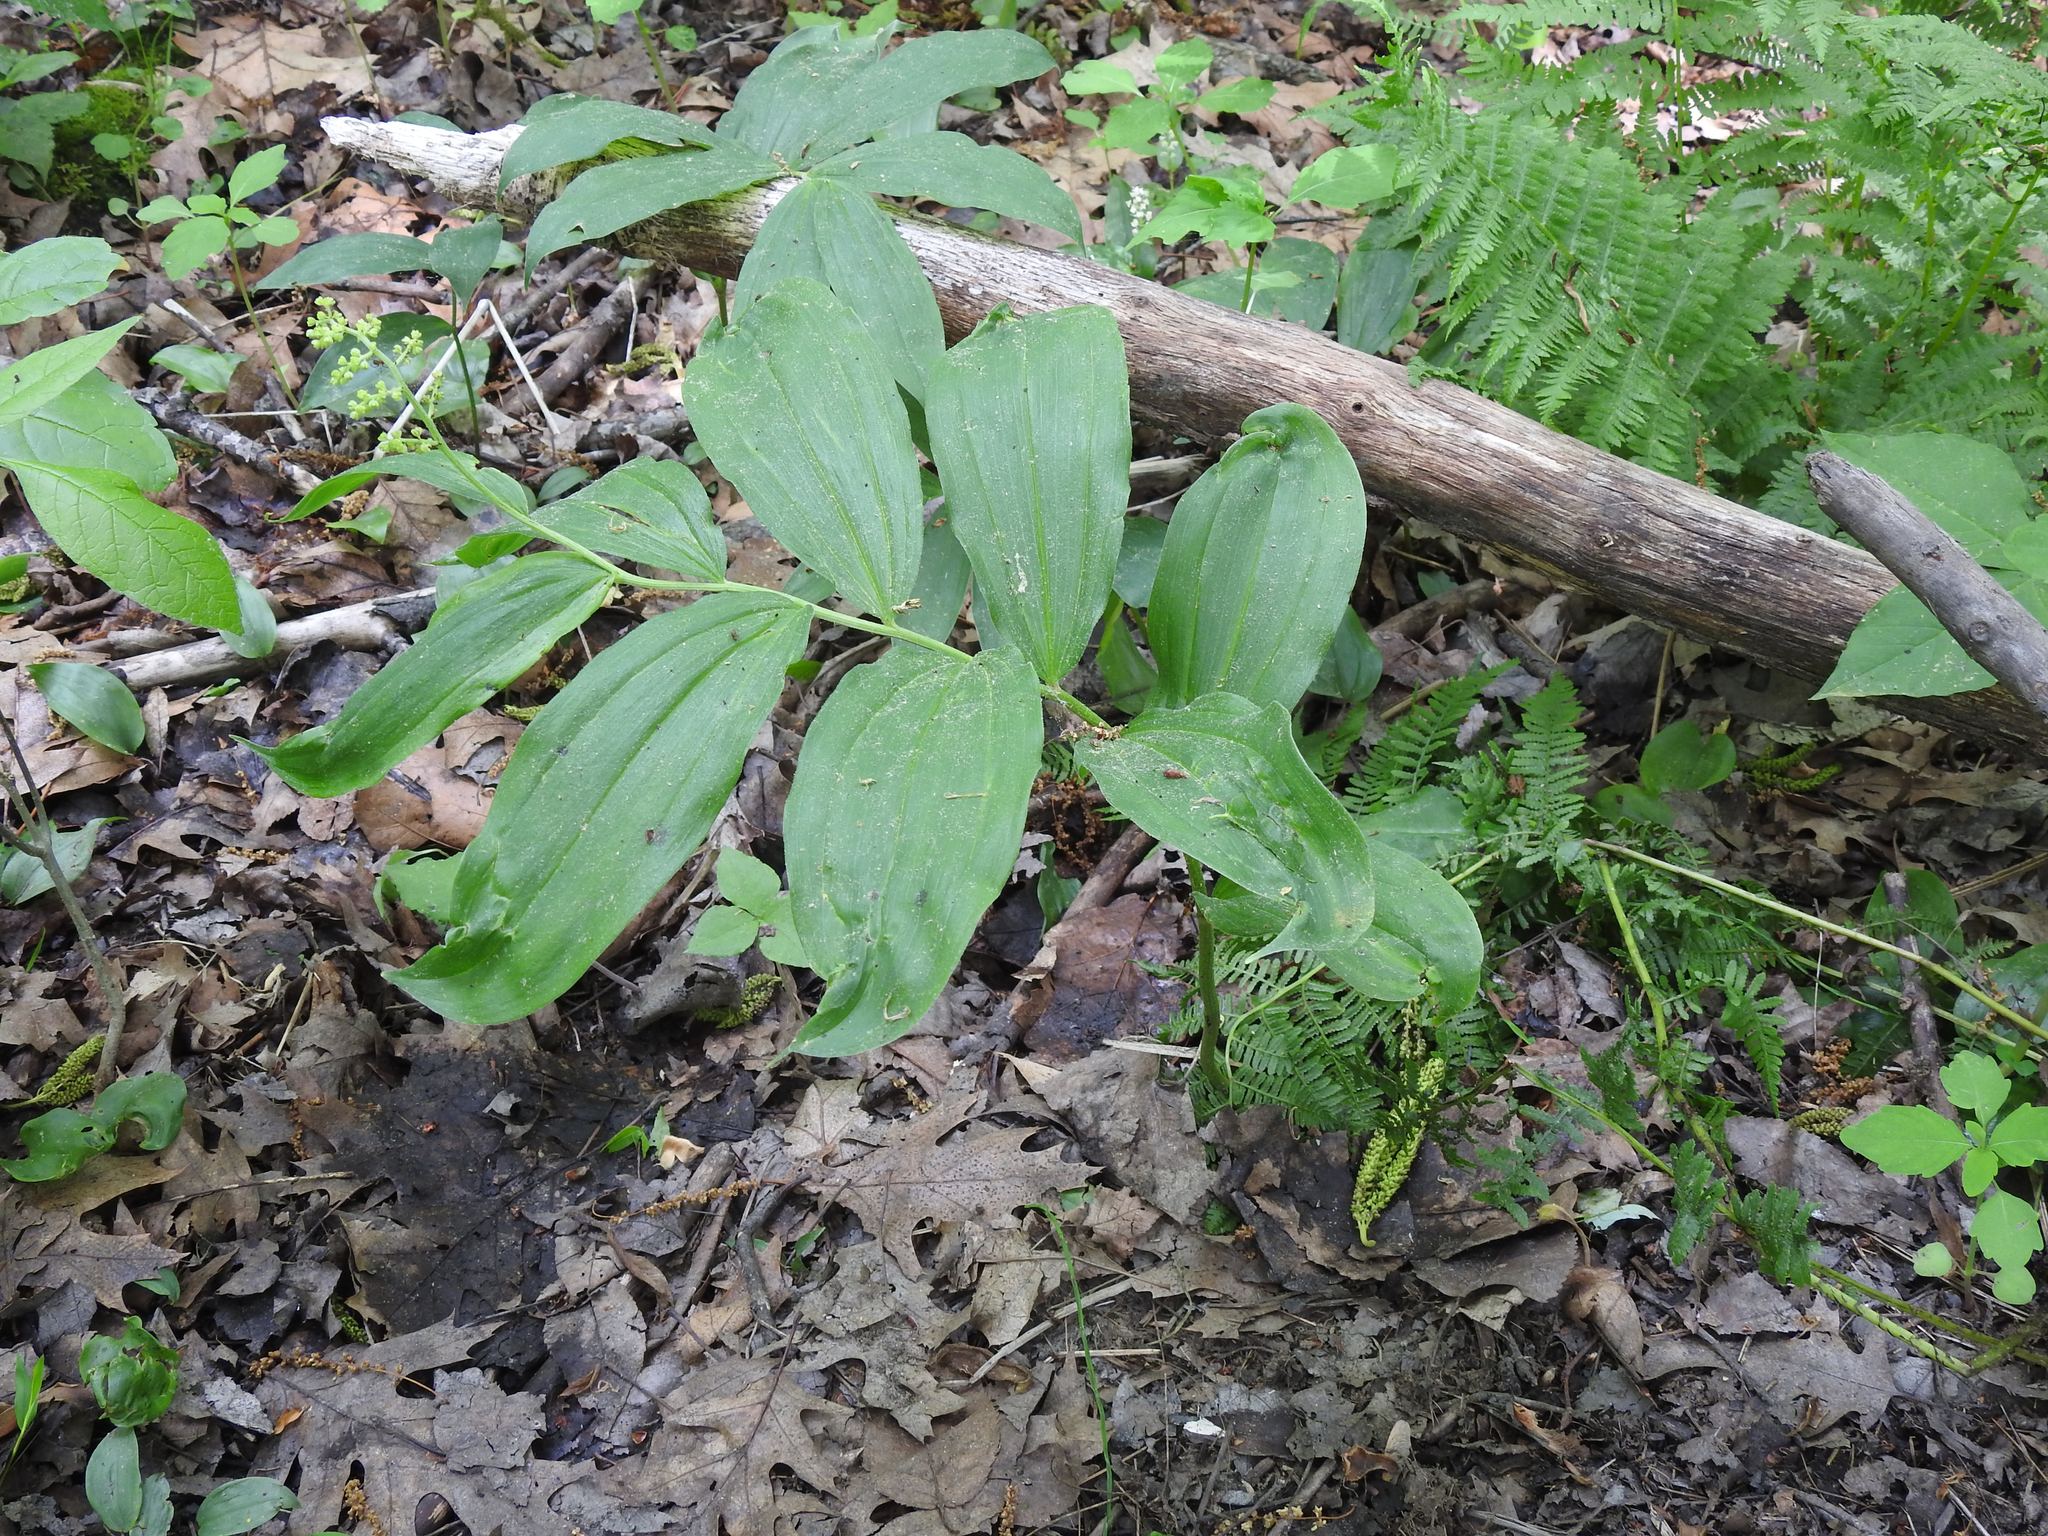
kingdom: Plantae
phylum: Tracheophyta
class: Liliopsida
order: Asparagales
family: Asparagaceae
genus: Maianthemum
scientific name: Maianthemum racemosum
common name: False spikenard
